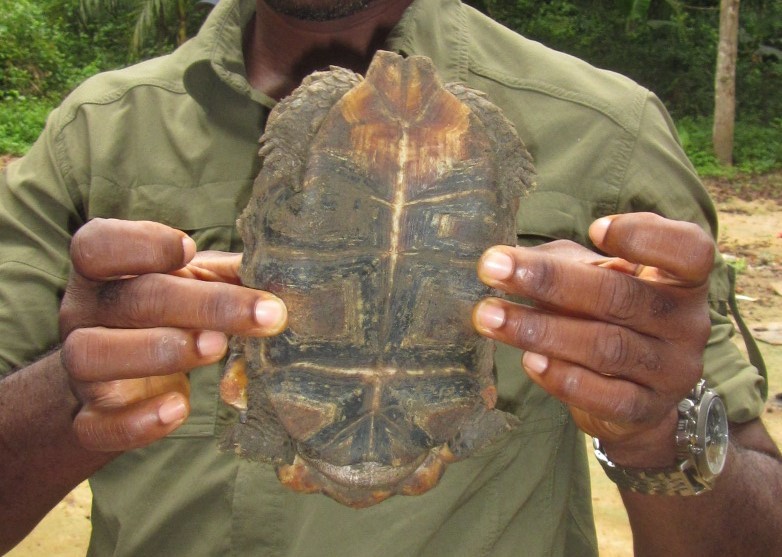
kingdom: Animalia
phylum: Chordata
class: Testudines
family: Testudinidae
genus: Kinixys
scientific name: Kinixys erosa
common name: Serrated hinge-back tortoise
